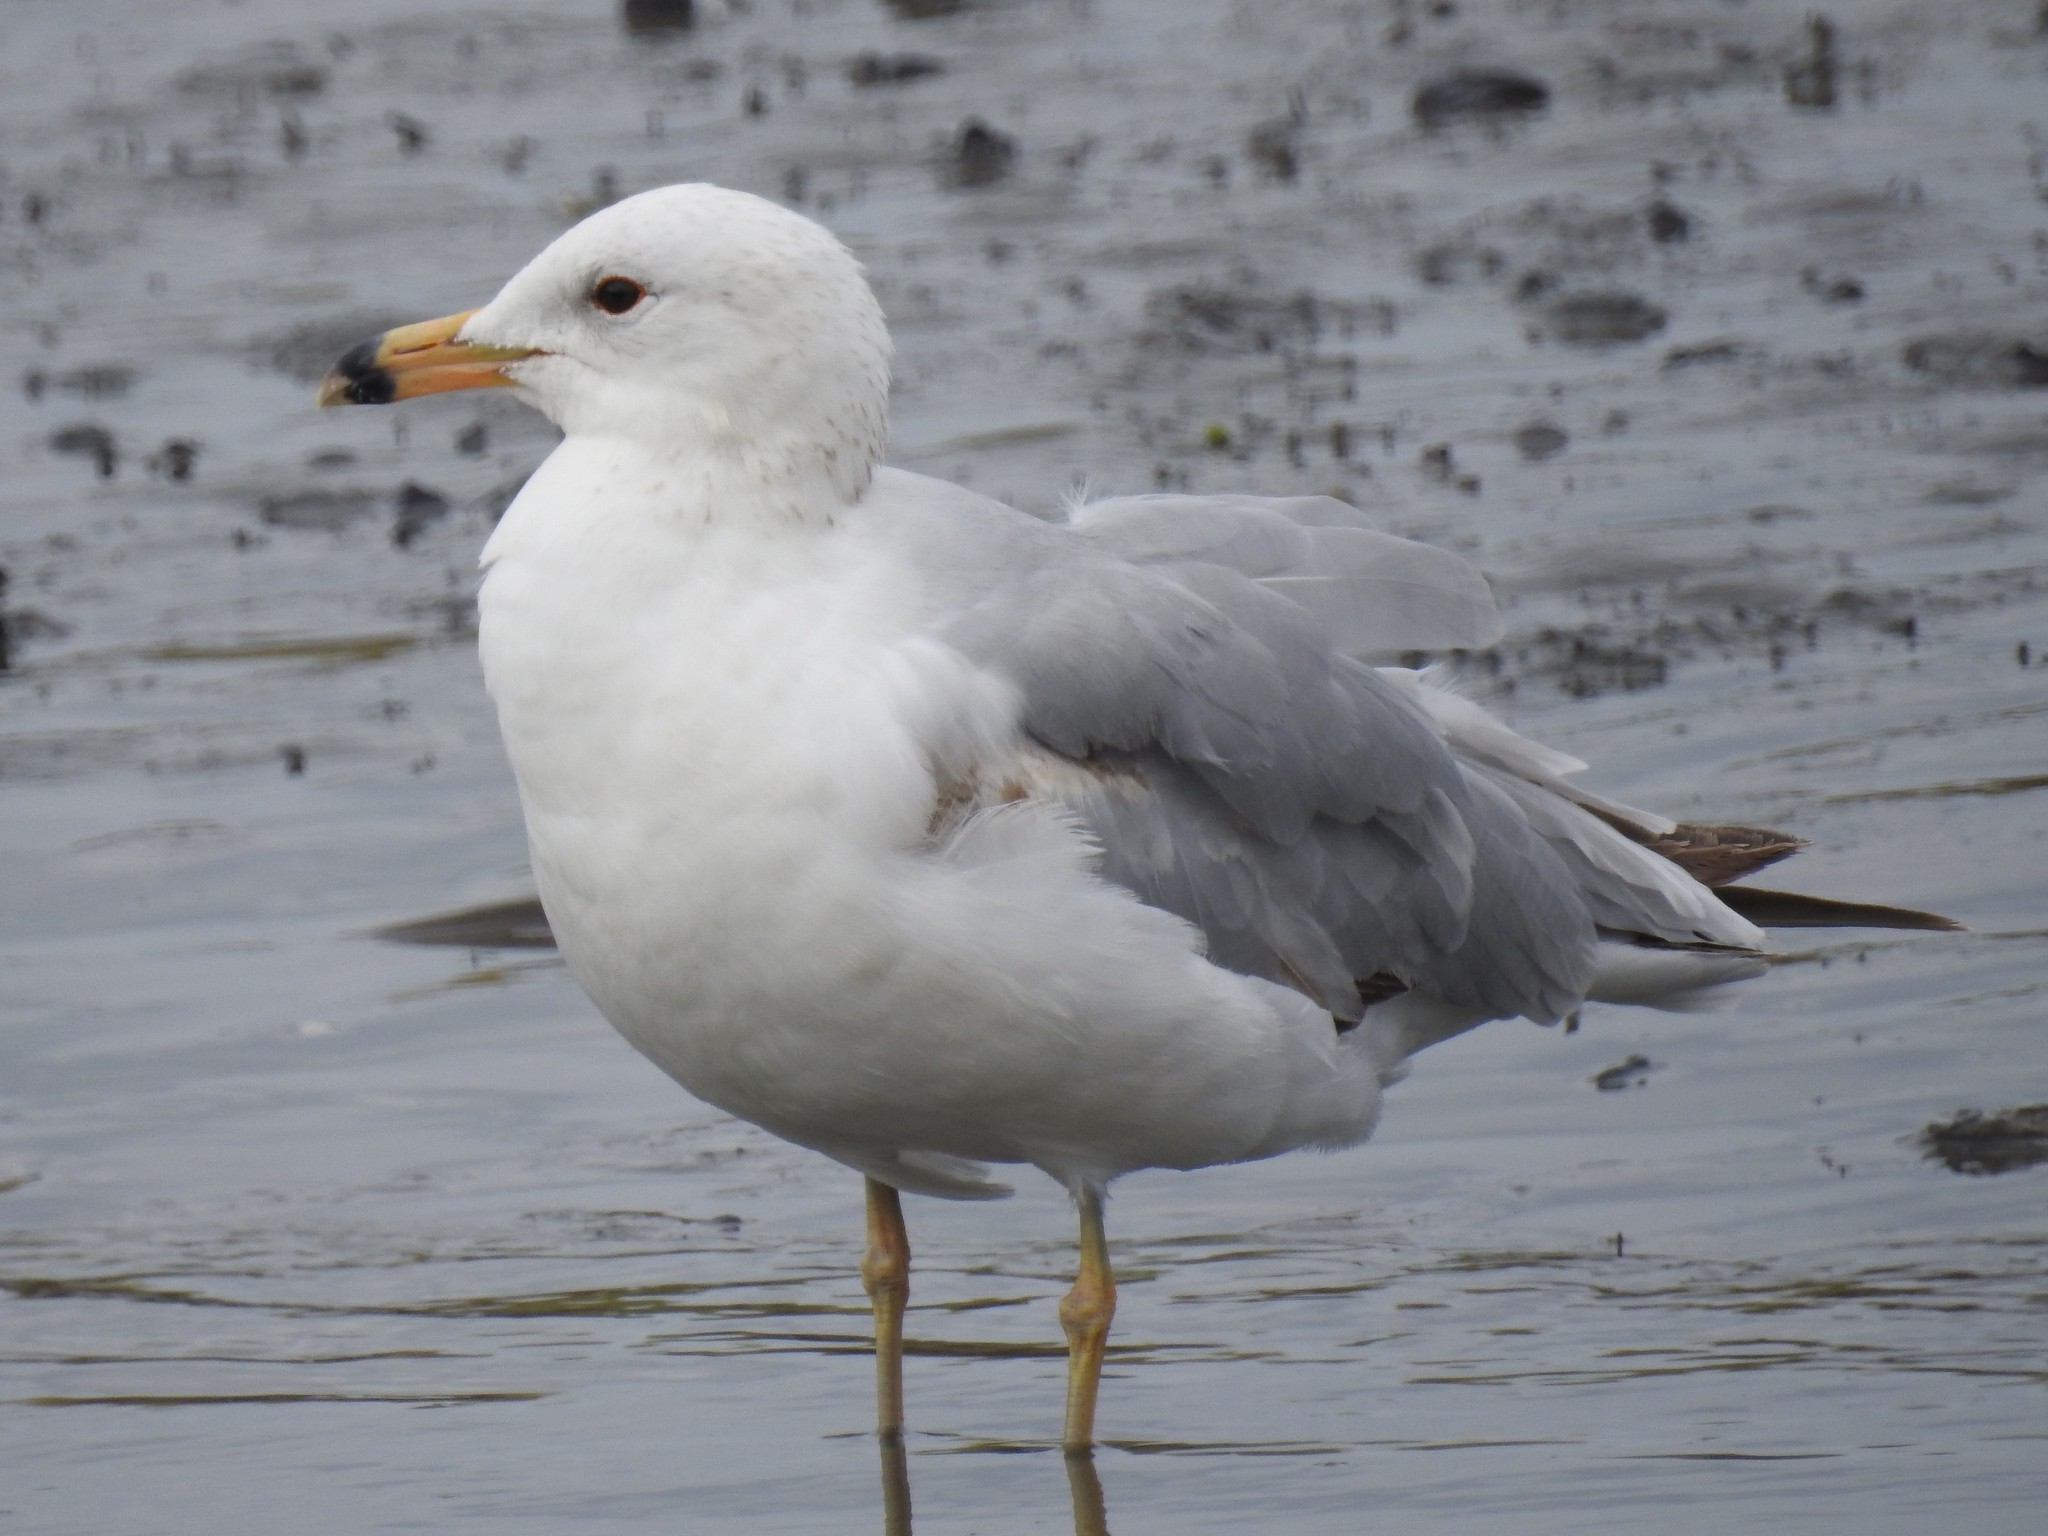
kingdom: Animalia
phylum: Chordata
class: Aves
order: Charadriiformes
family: Laridae
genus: Larus
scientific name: Larus delawarensis
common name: Ring-billed gull
